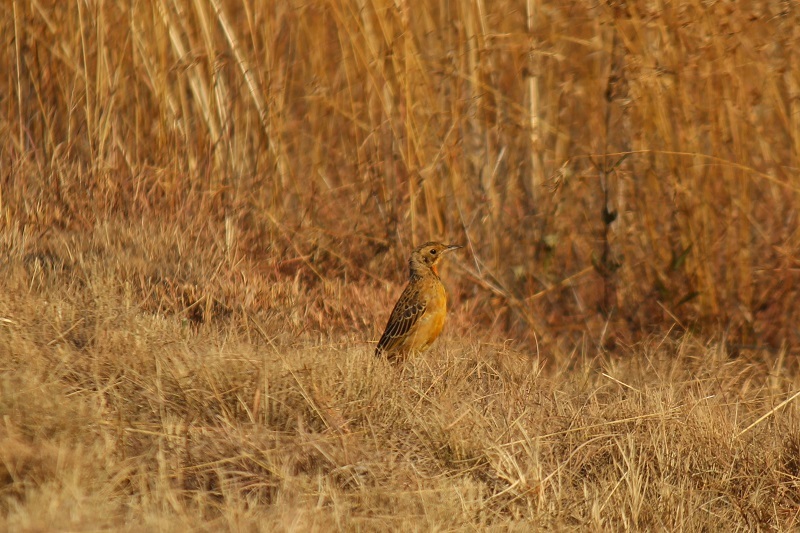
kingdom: Animalia
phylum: Chordata
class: Aves
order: Passeriformes
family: Motacillidae
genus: Macronyx
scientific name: Macronyx capensis
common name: Cape longclaw
